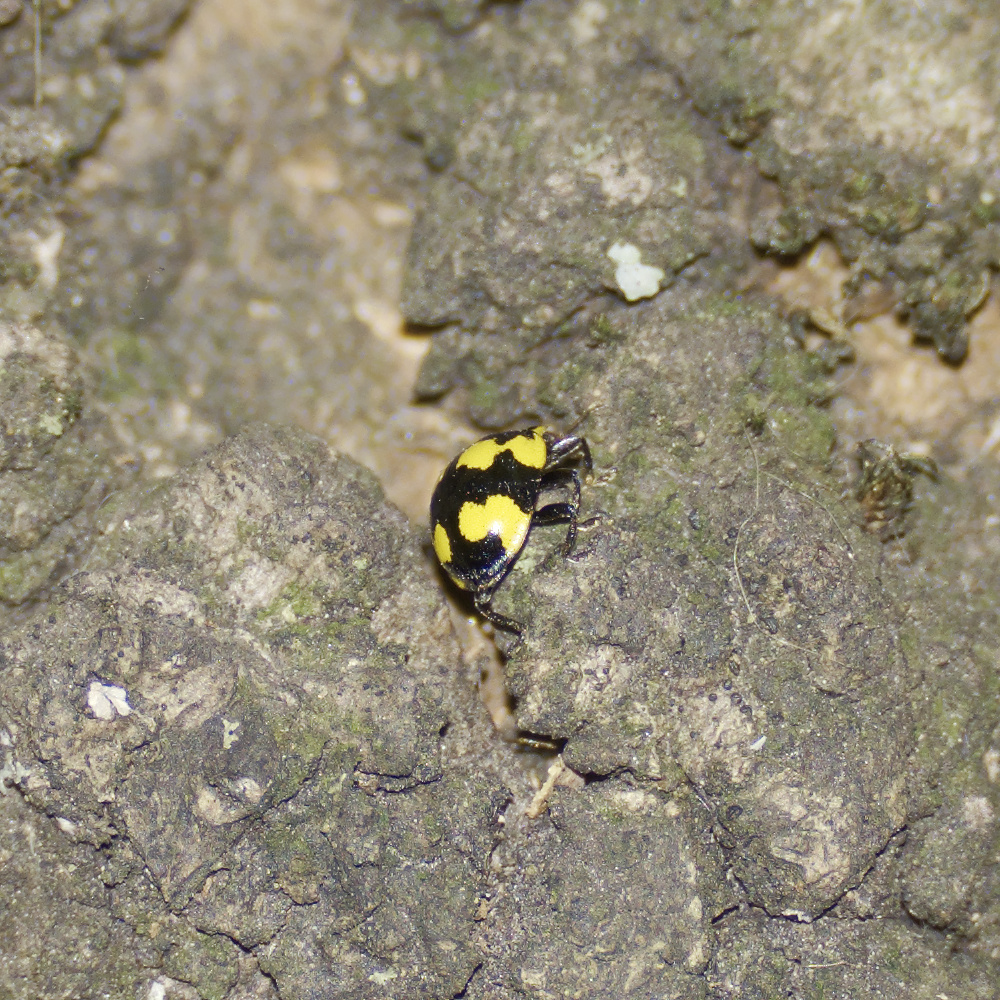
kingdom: Animalia
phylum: Arthropoda
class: Insecta
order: Coleoptera
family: Coccinellidae
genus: Illeis
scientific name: Illeis galbula
